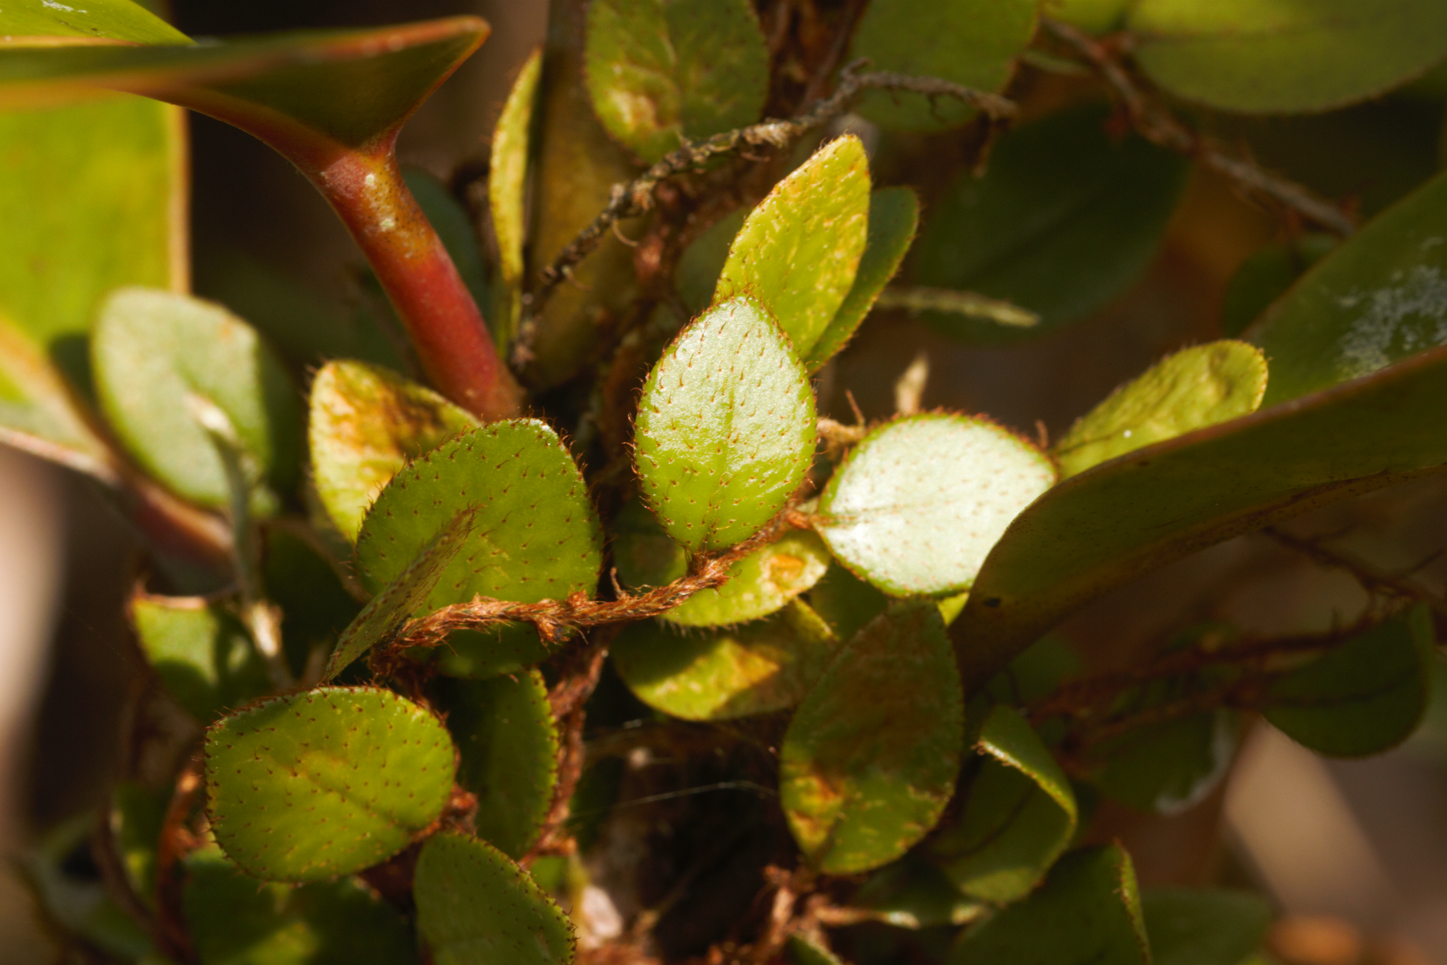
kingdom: Plantae
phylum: Tracheophyta
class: Polypodiopsida
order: Polypodiales
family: Polypodiaceae
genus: Microgramma
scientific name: Microgramma reptans
